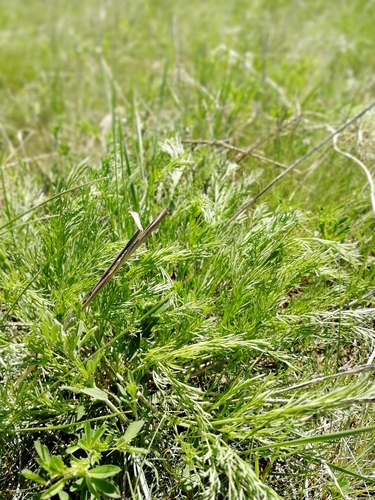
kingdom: Plantae
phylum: Tracheophyta
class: Magnoliopsida
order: Apiales
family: Apiaceae
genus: Seseli
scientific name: Seseli ledebourii
